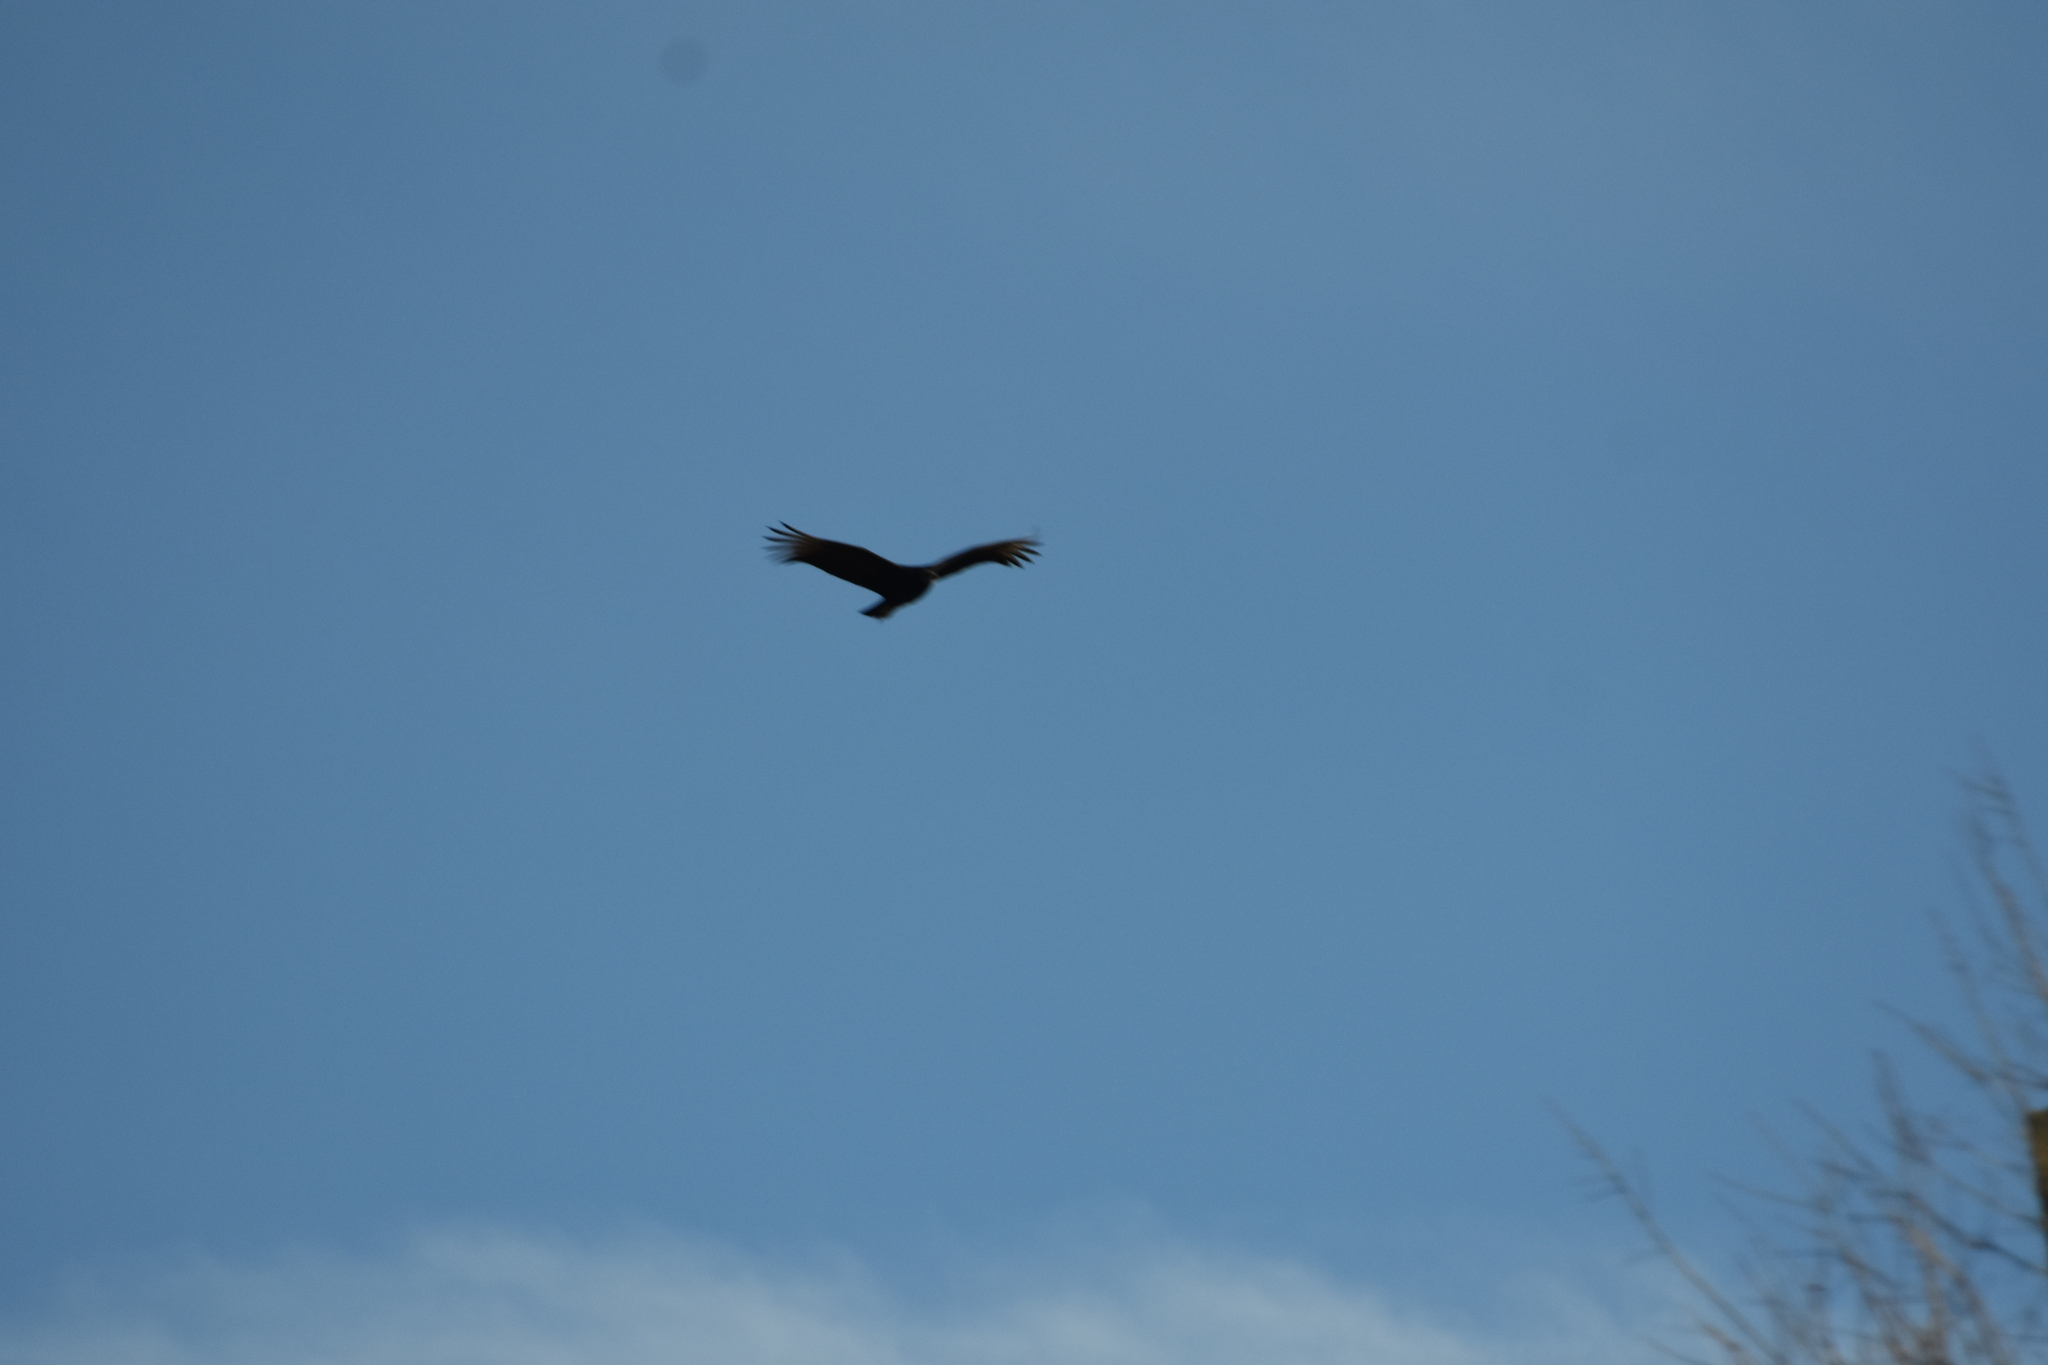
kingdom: Animalia
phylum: Chordata
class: Aves
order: Accipitriformes
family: Cathartidae
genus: Cathartes
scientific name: Cathartes aura
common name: Turkey vulture
